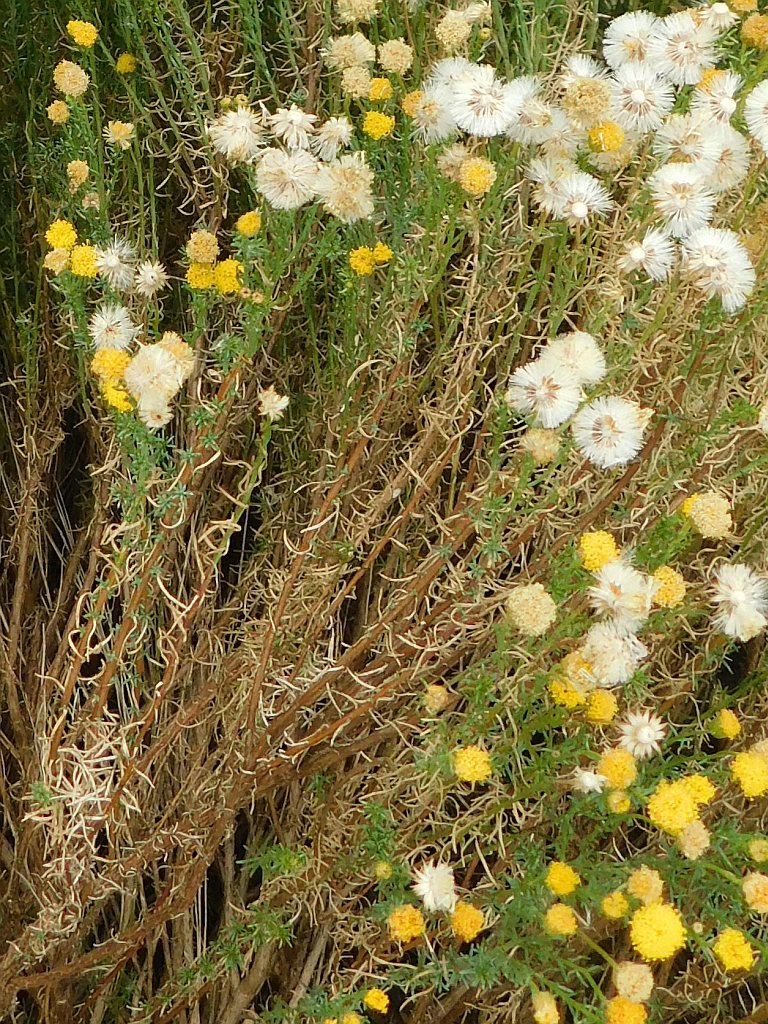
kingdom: Plantae
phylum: Tracheophyta
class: Magnoliopsida
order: Asterales
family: Asteraceae
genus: Chrysocoma
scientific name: Chrysocoma ciliata
